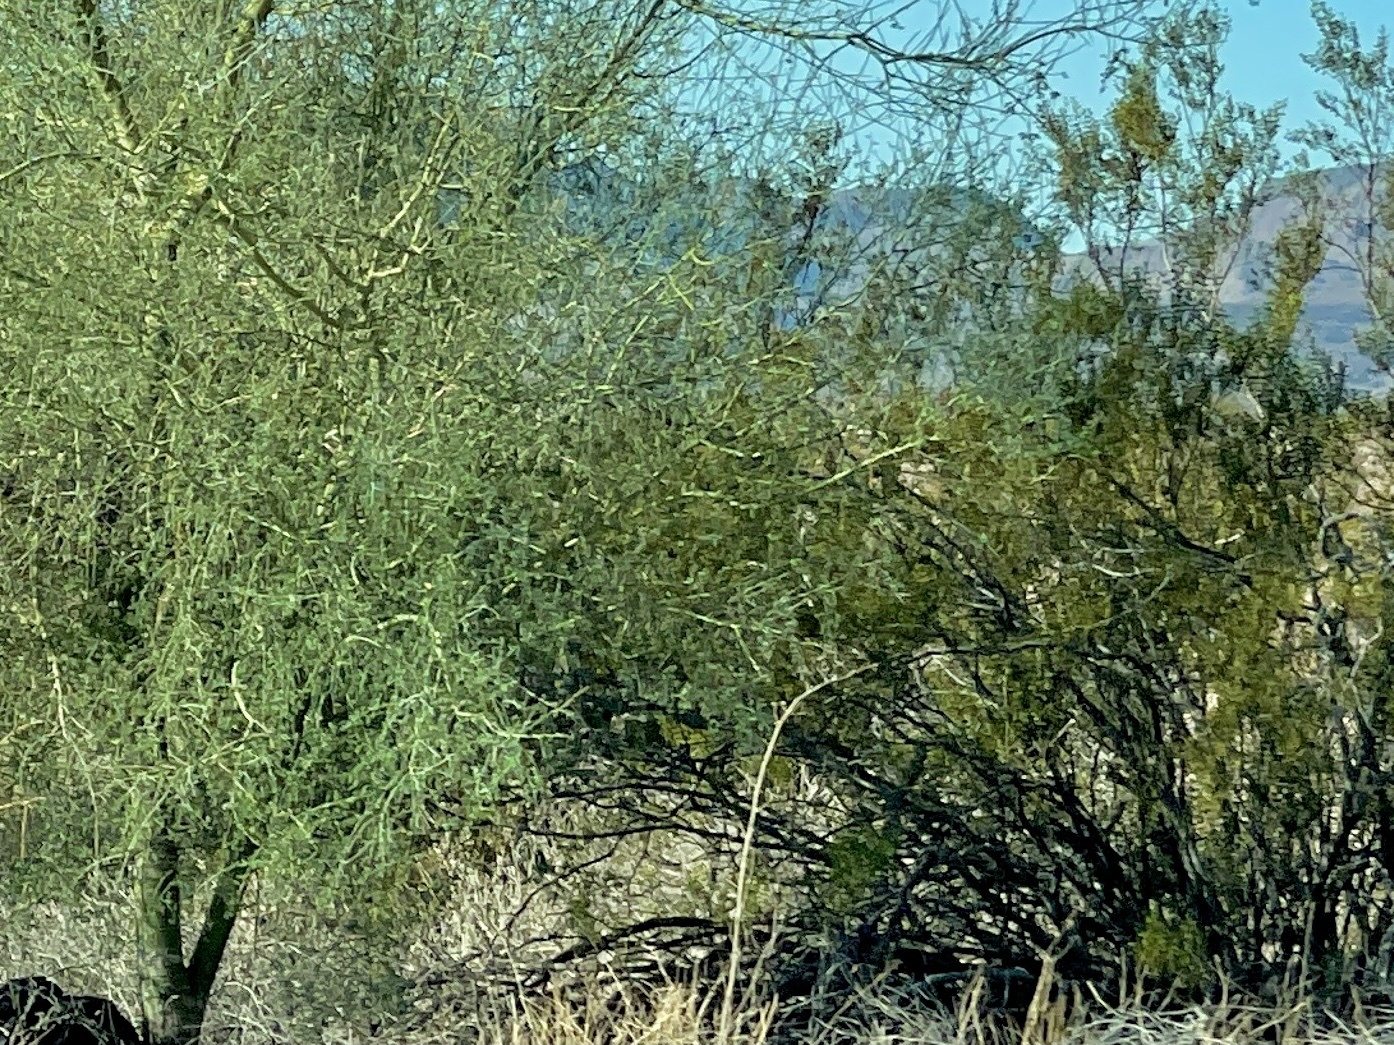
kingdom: Plantae
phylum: Tracheophyta
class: Magnoliopsida
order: Zygophyllales
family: Zygophyllaceae
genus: Larrea
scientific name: Larrea tridentata
